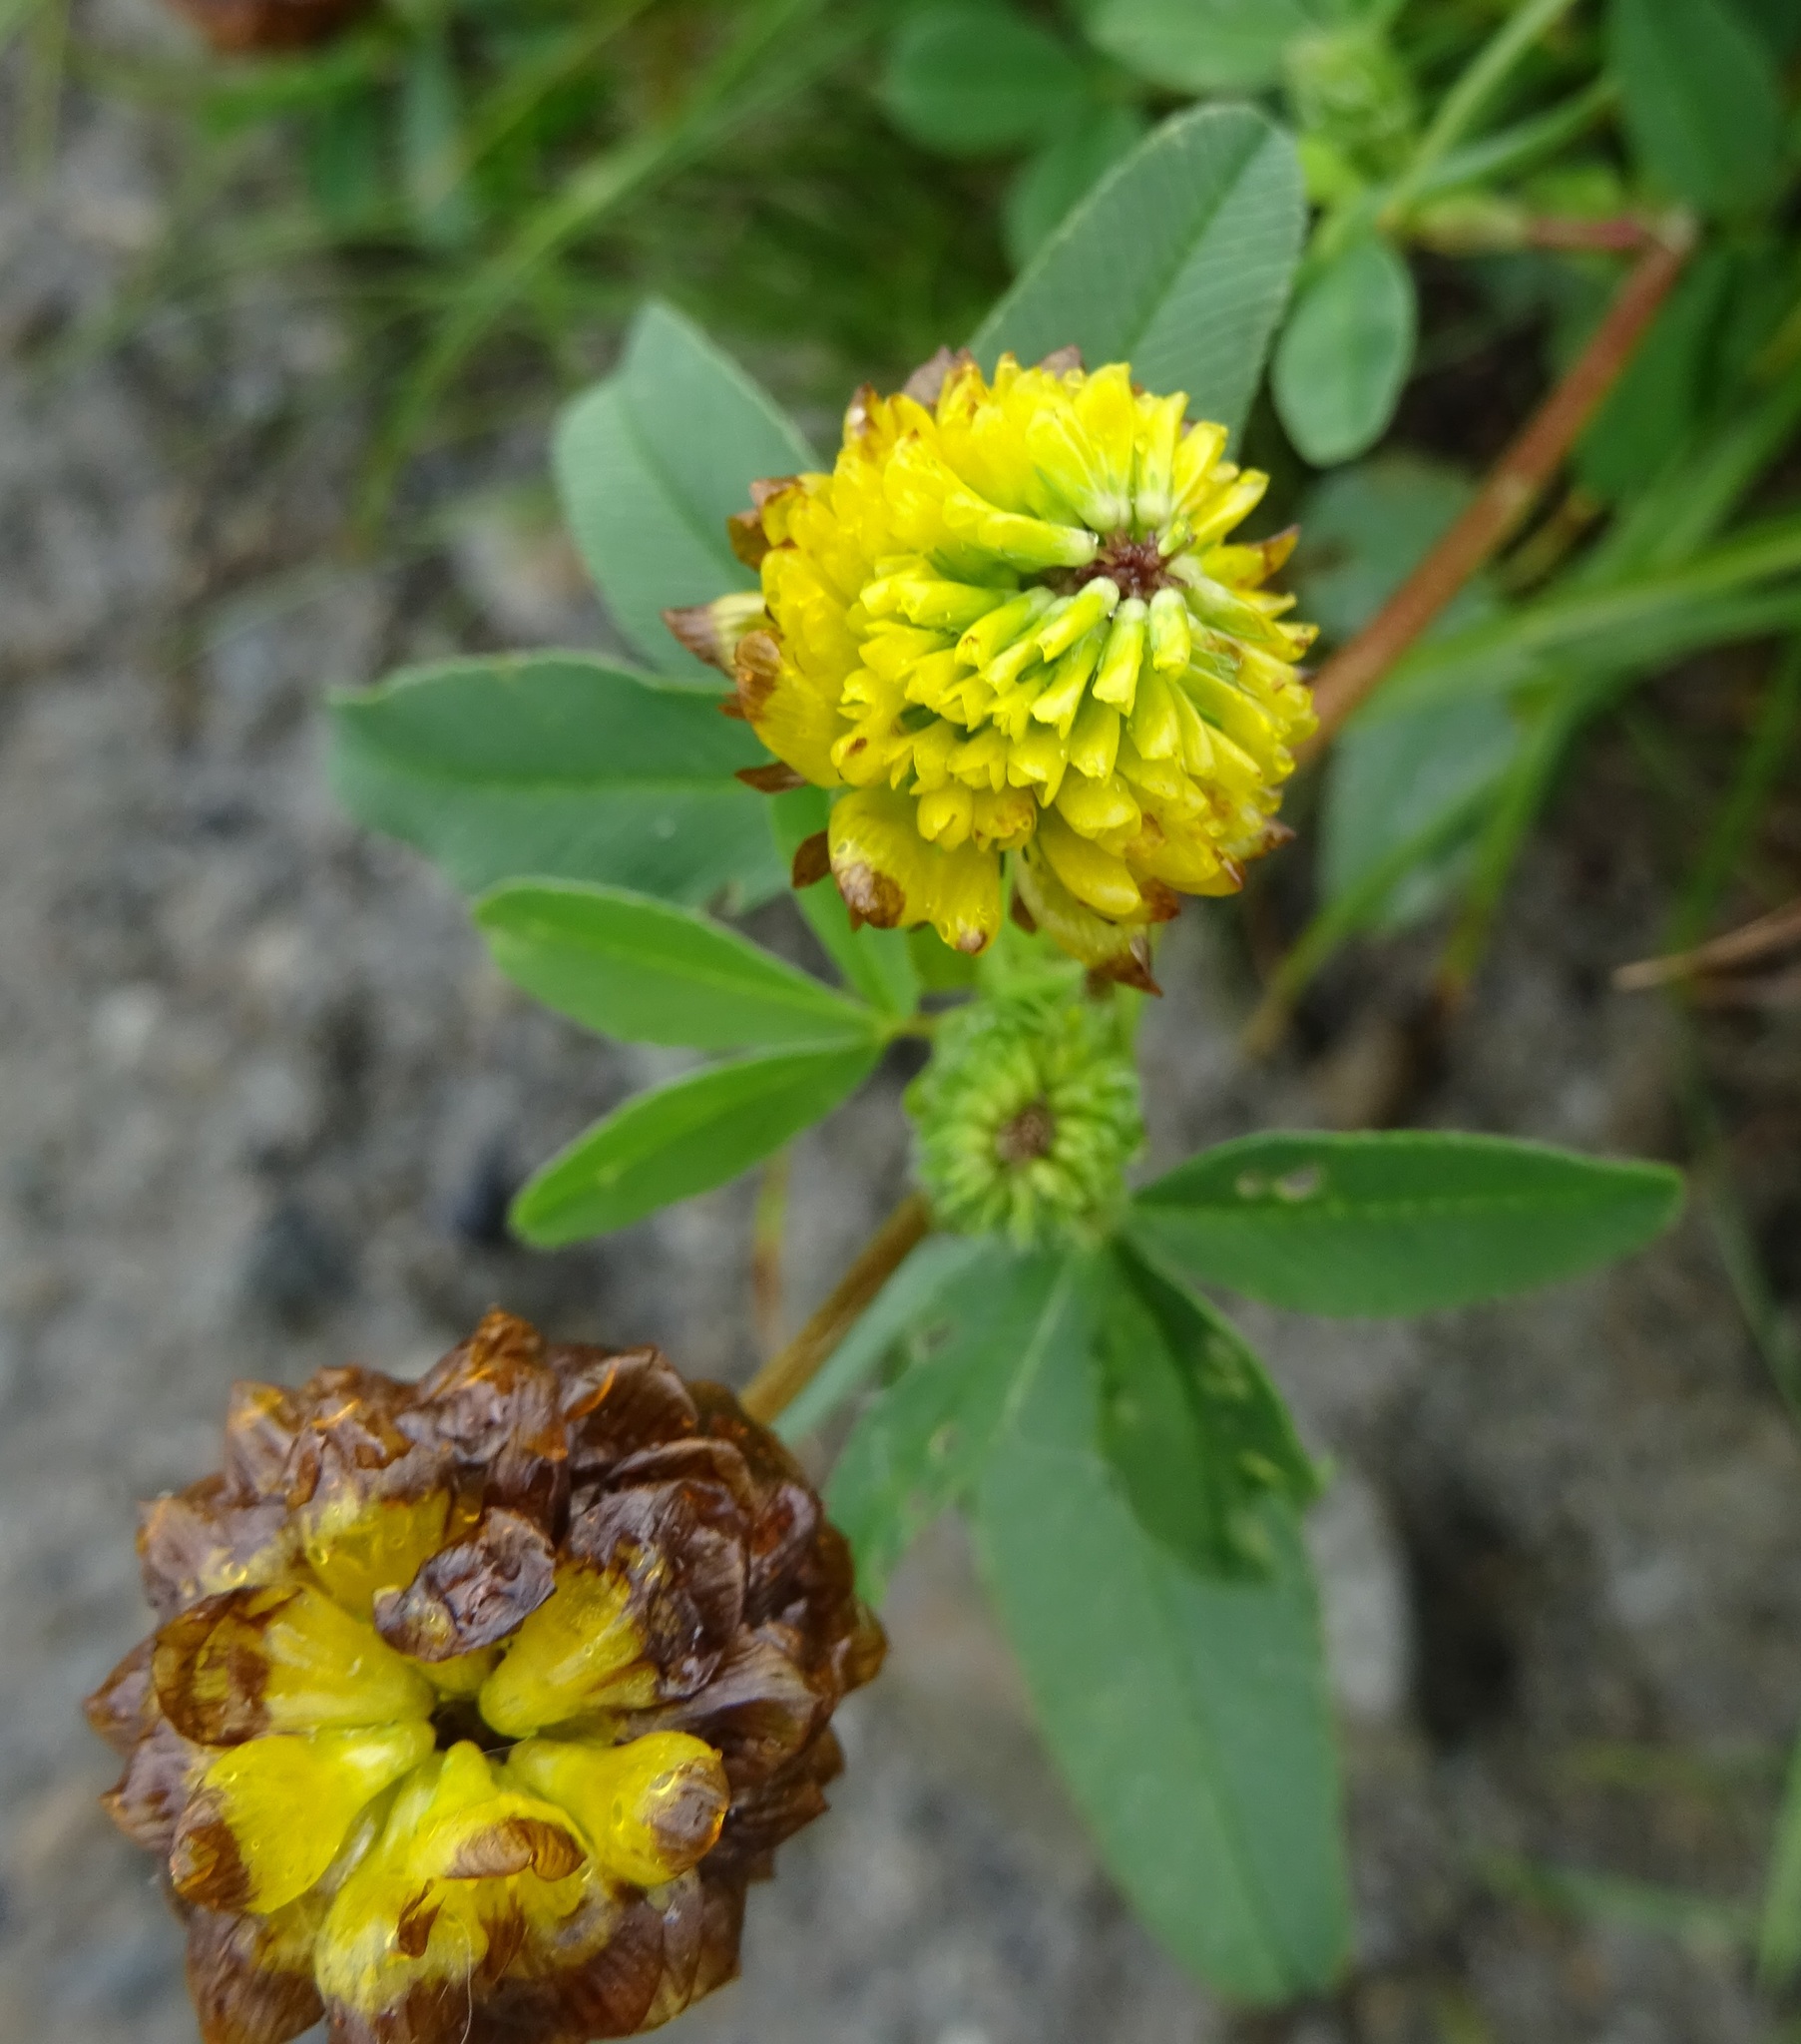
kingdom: Plantae
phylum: Tracheophyta
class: Magnoliopsida
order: Fabales
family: Fabaceae
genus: Trifolium
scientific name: Trifolium badium
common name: Brown clover
